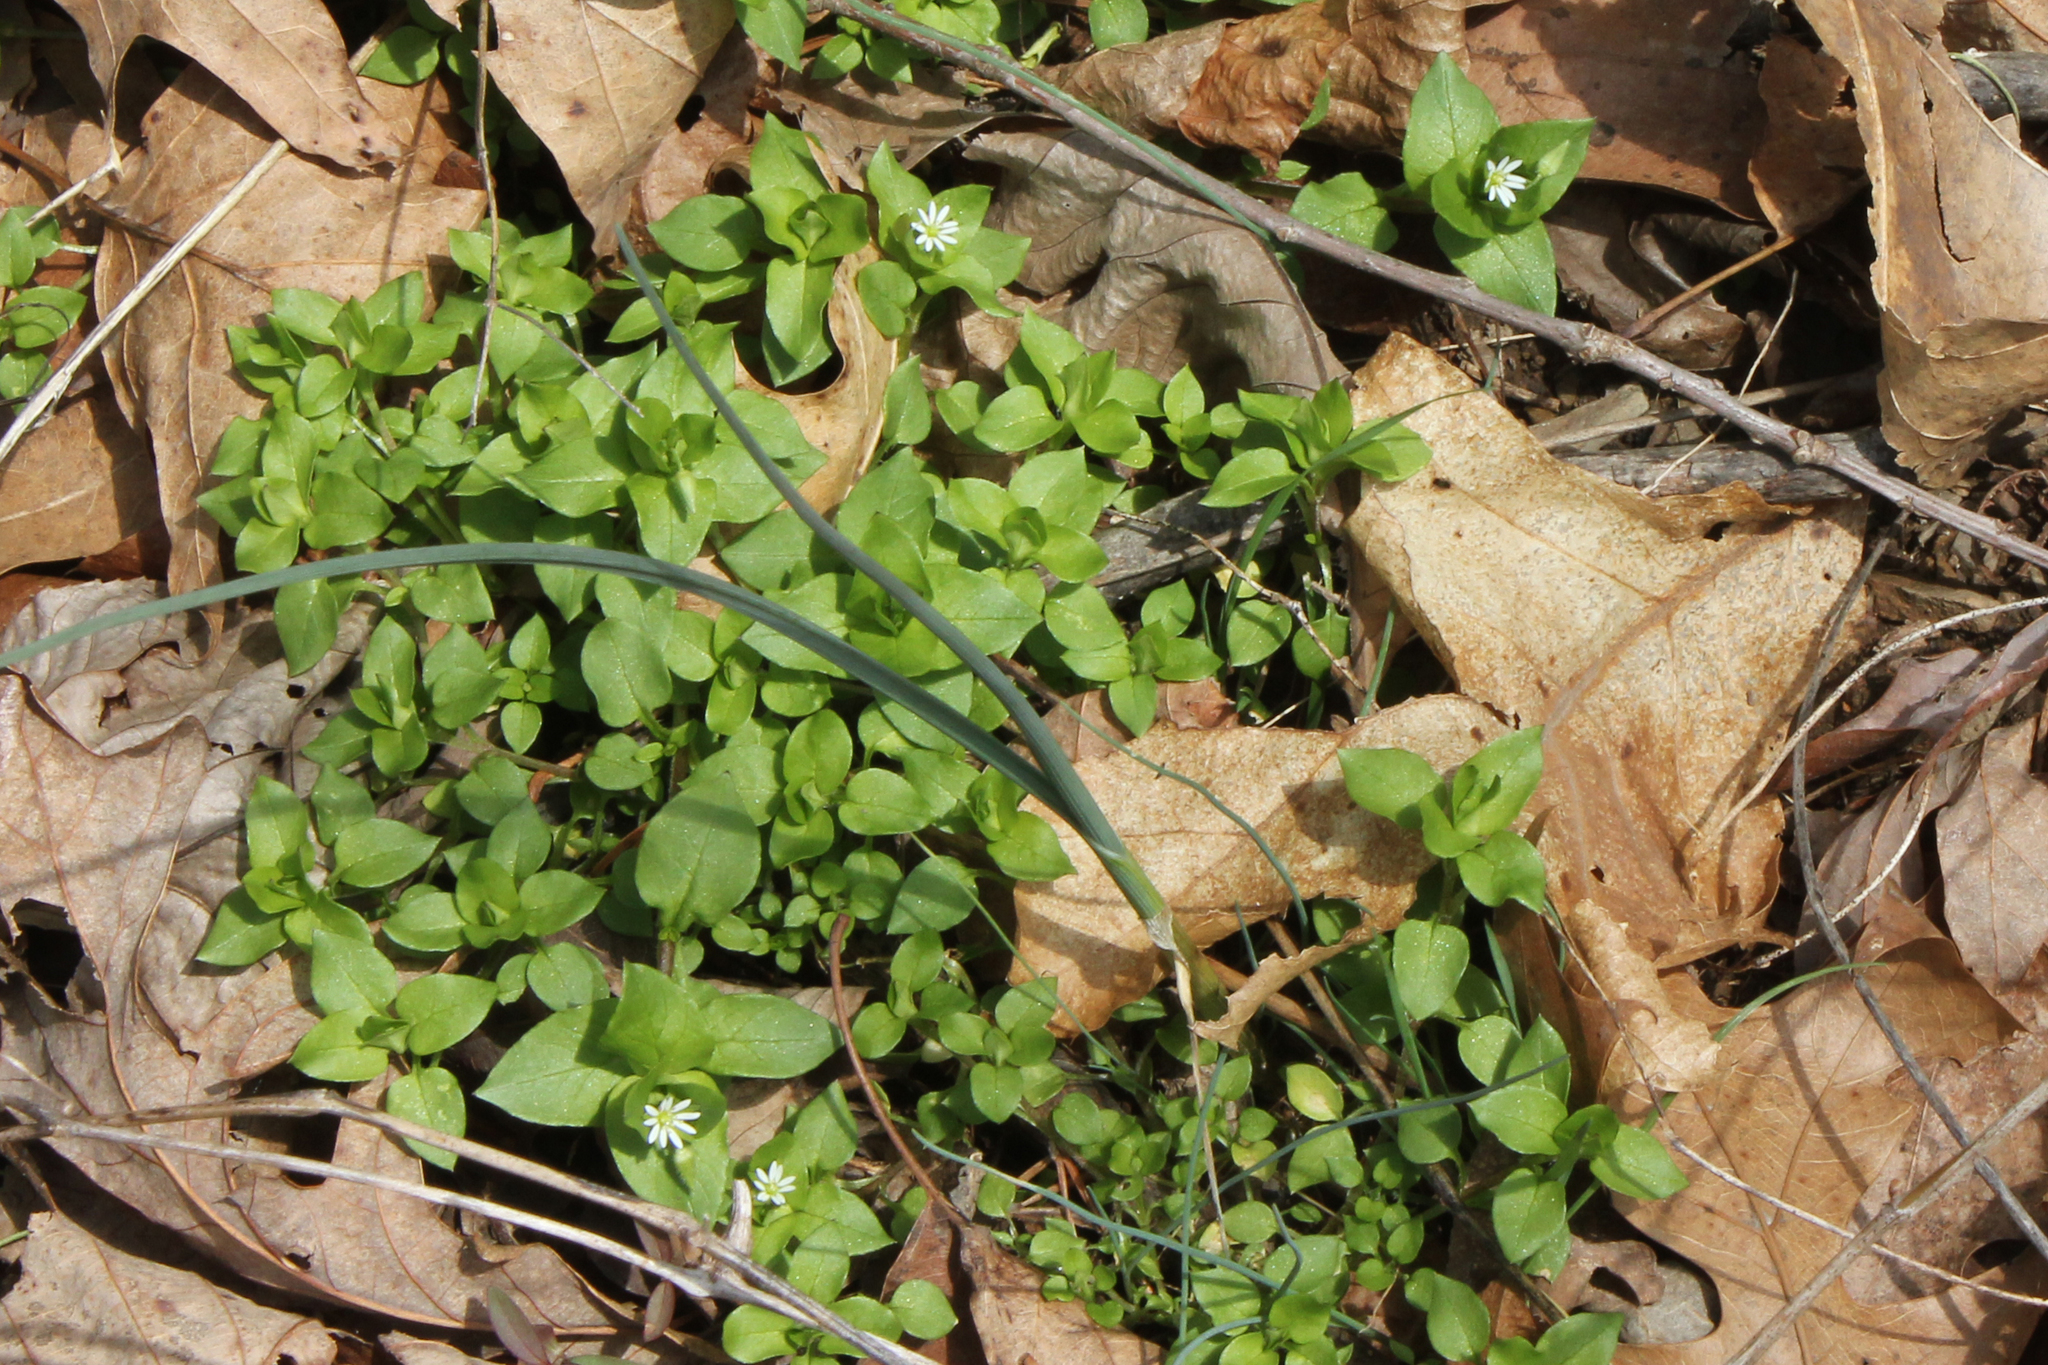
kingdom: Plantae
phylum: Tracheophyta
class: Magnoliopsida
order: Caryophyllales
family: Caryophyllaceae
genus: Stellaria
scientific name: Stellaria media
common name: Common chickweed
